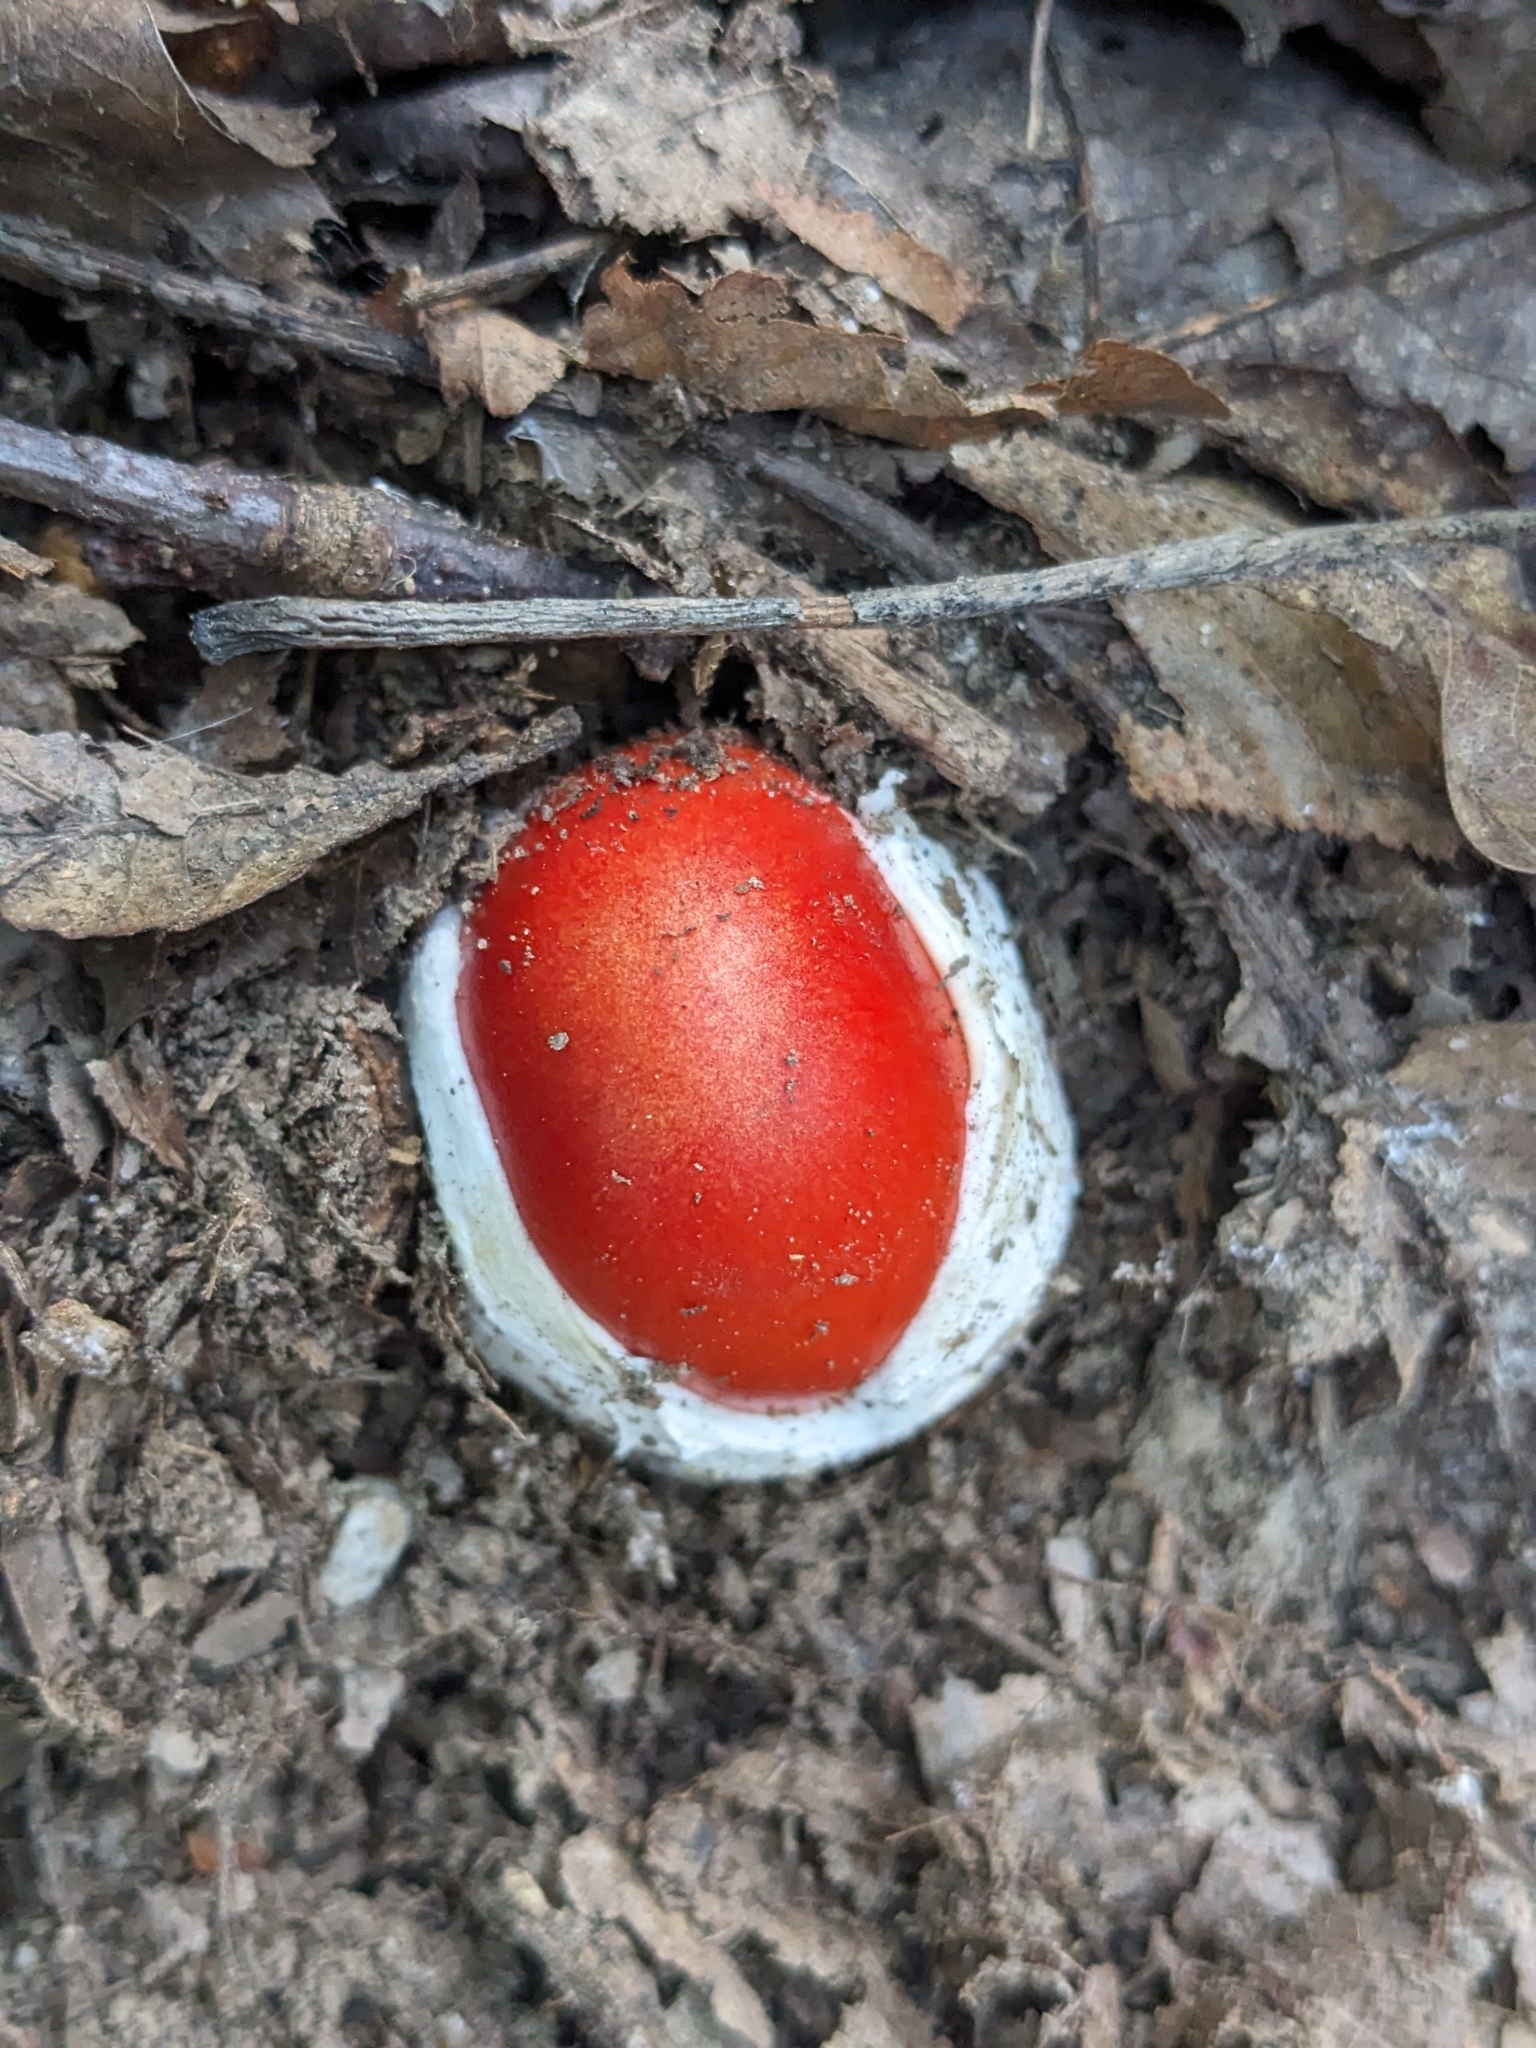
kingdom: Fungi
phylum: Basidiomycota
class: Agaricomycetes
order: Agaricales
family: Amanitaceae
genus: Amanita
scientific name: Amanita jacksonii
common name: Jackson's slender caesar
